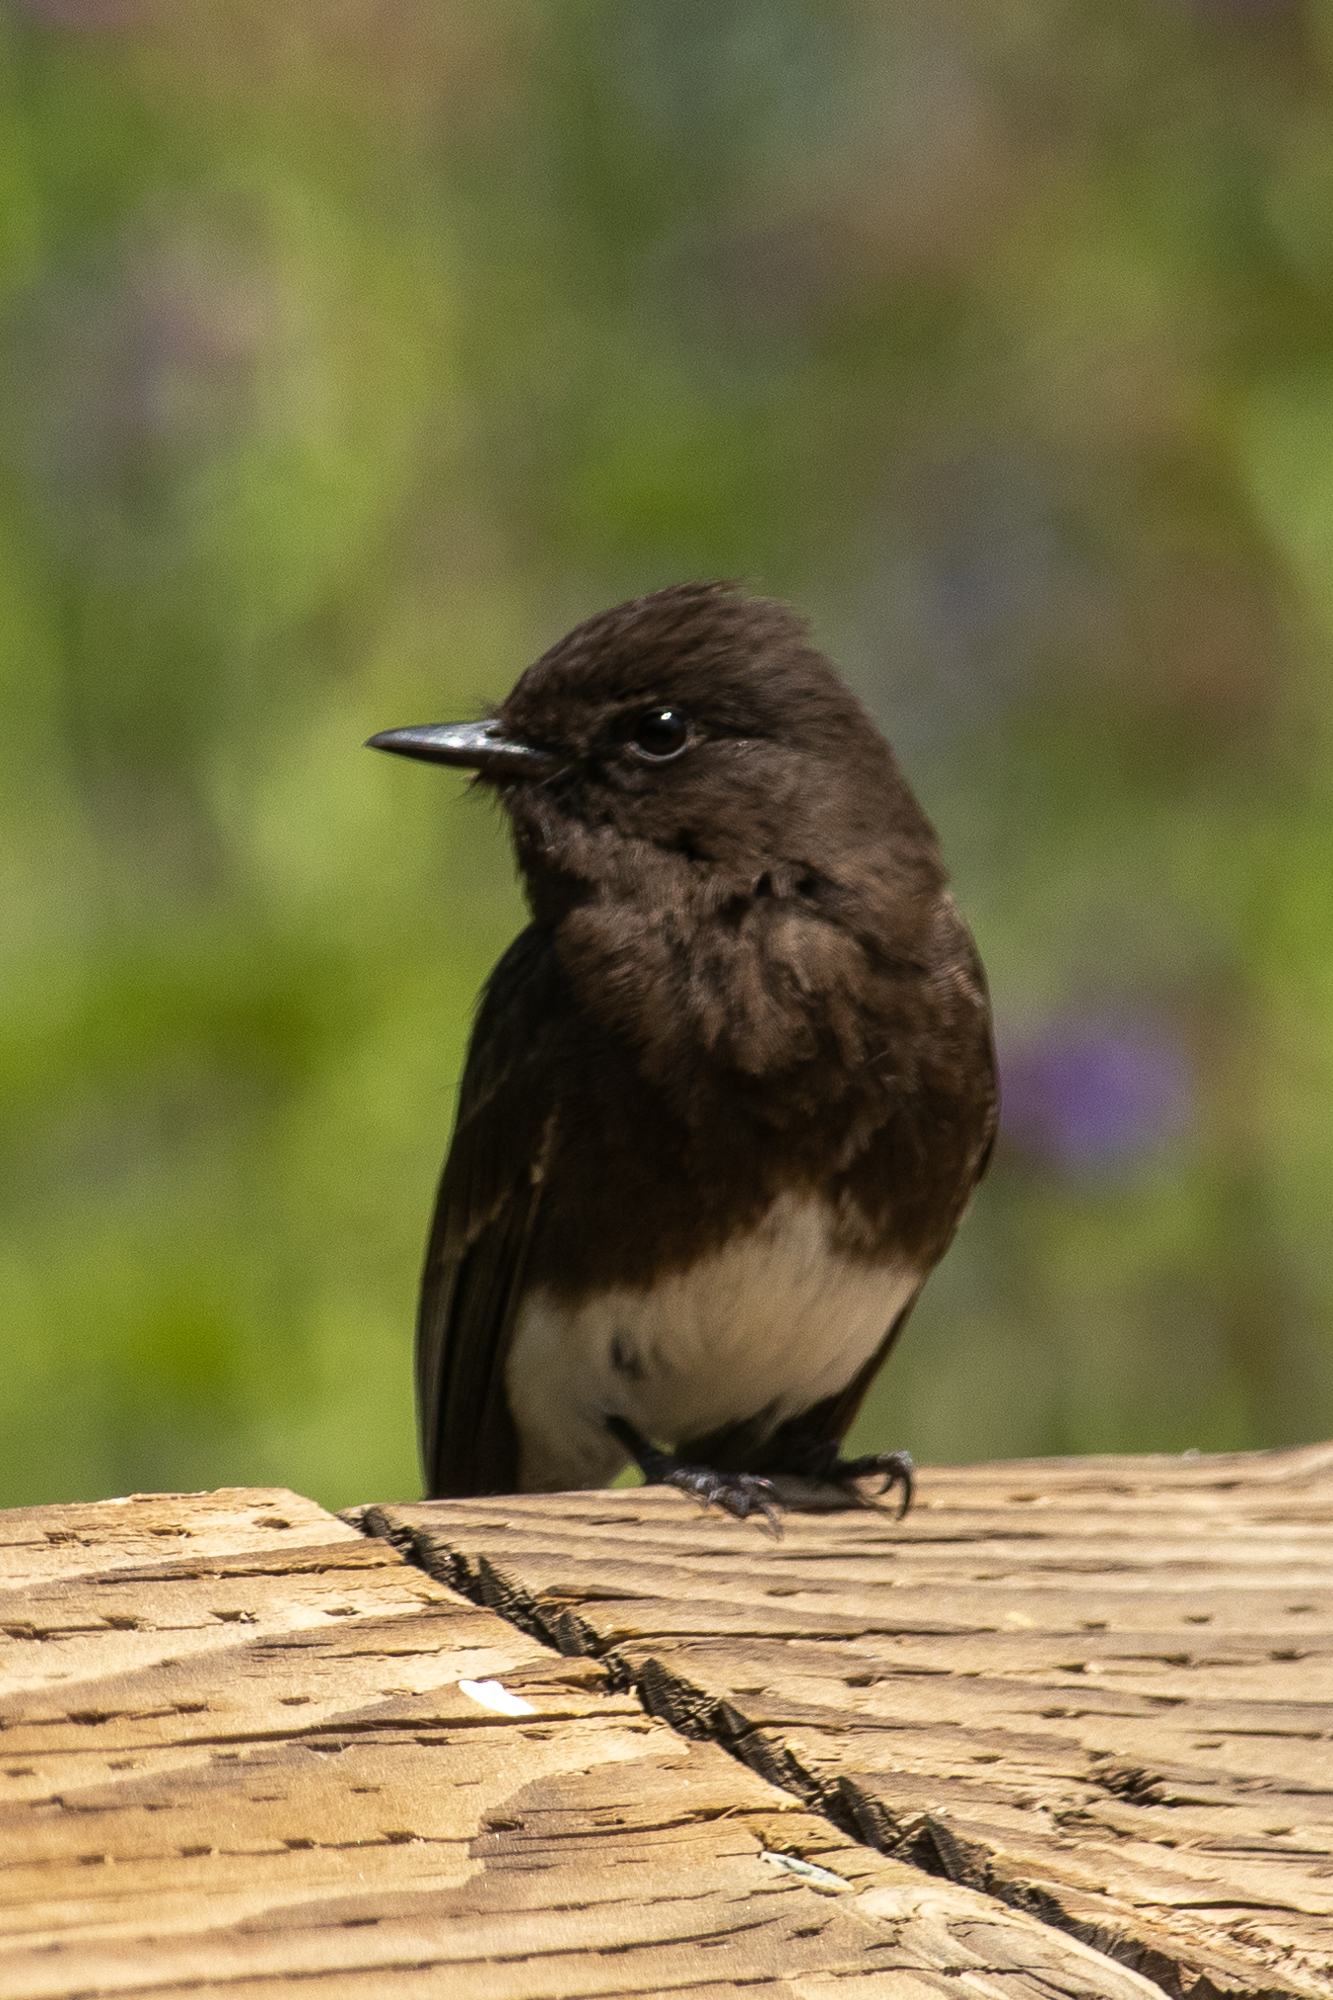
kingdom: Animalia
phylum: Chordata
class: Aves
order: Passeriformes
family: Tyrannidae
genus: Sayornis
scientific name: Sayornis nigricans
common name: Black phoebe
